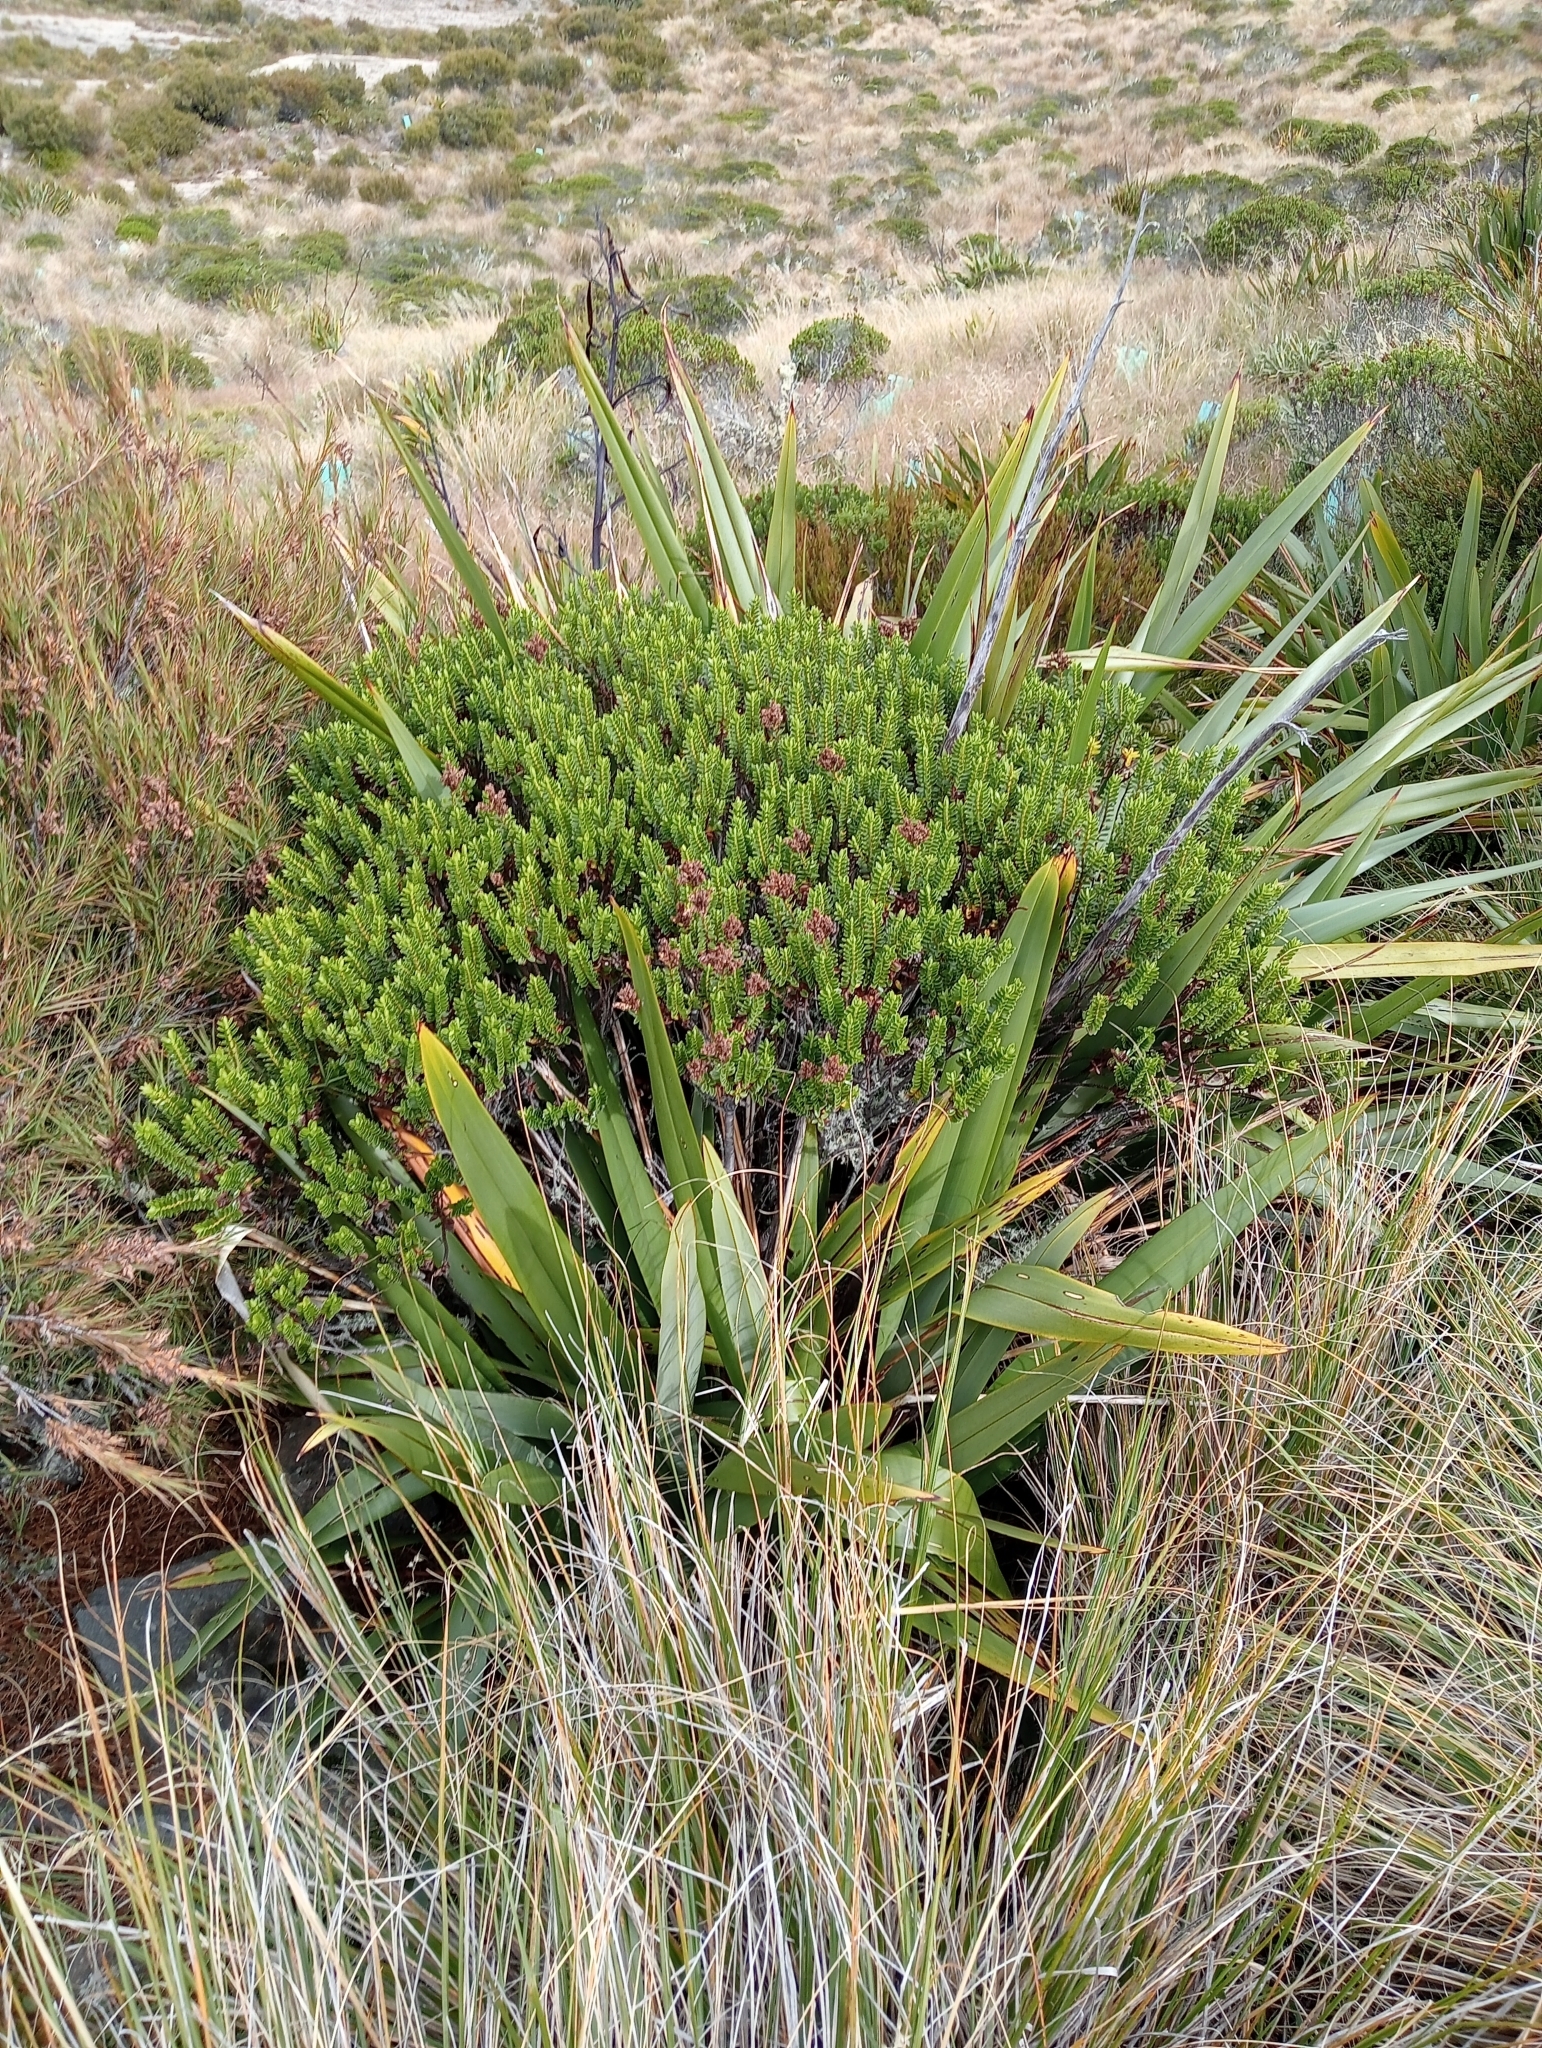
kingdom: Plantae
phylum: Tracheophyta
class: Magnoliopsida
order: Lamiales
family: Plantaginaceae
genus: Veronica
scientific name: Veronica odora
